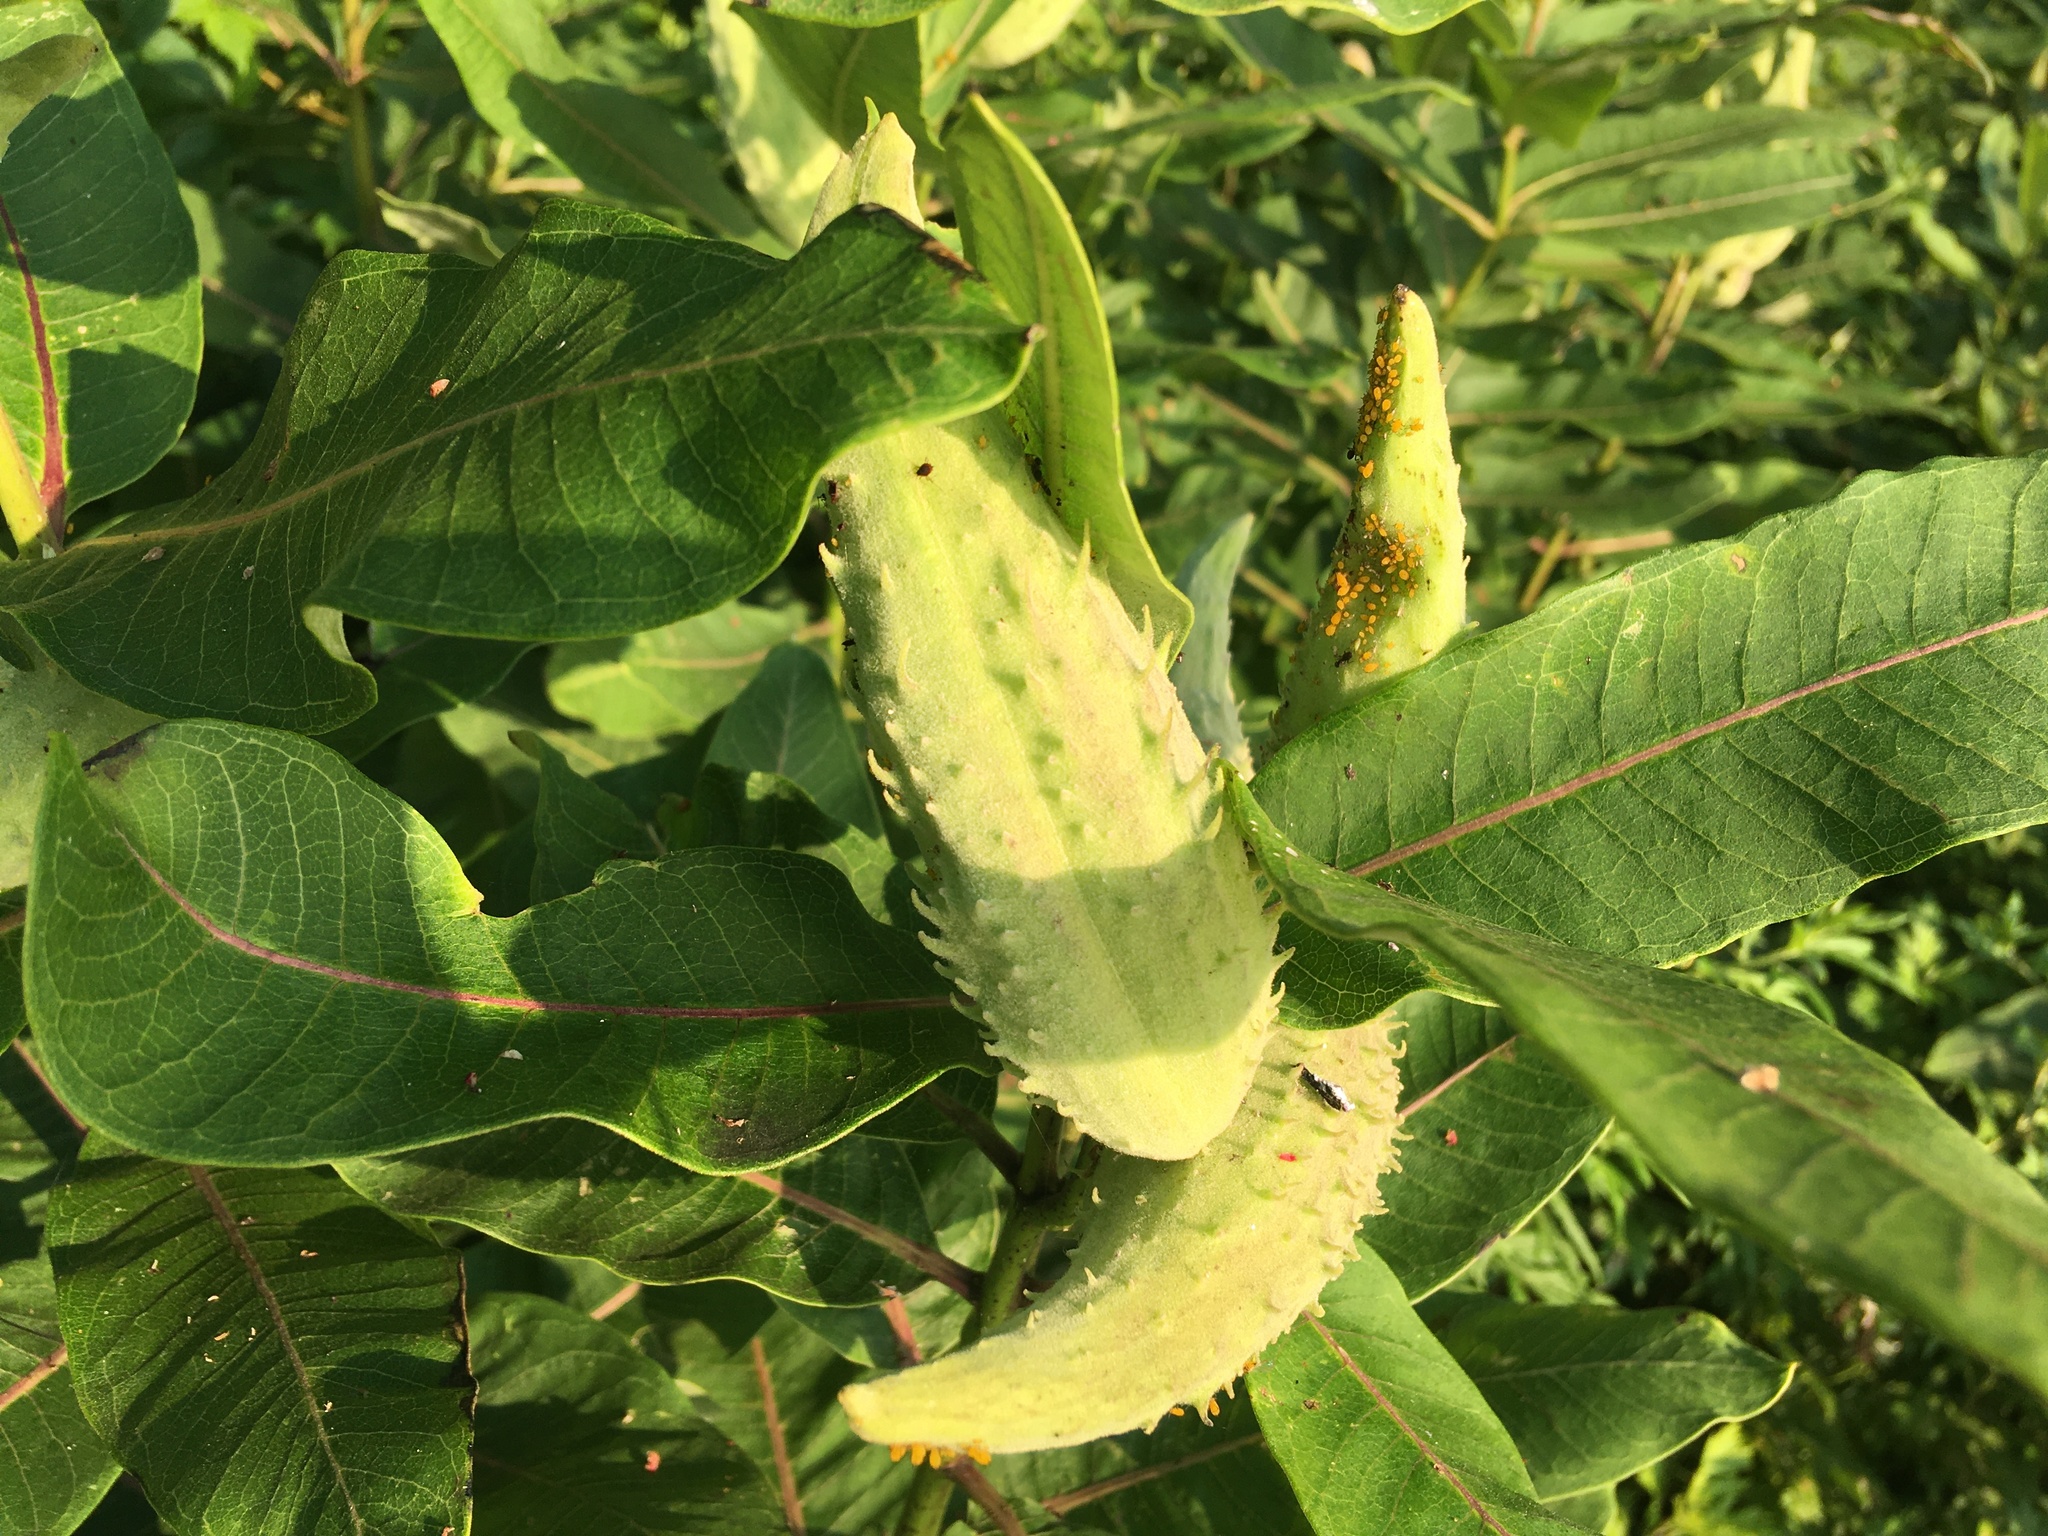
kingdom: Plantae
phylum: Tracheophyta
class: Magnoliopsida
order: Gentianales
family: Apocynaceae
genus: Asclepias
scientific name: Asclepias syriaca
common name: Common milkweed
